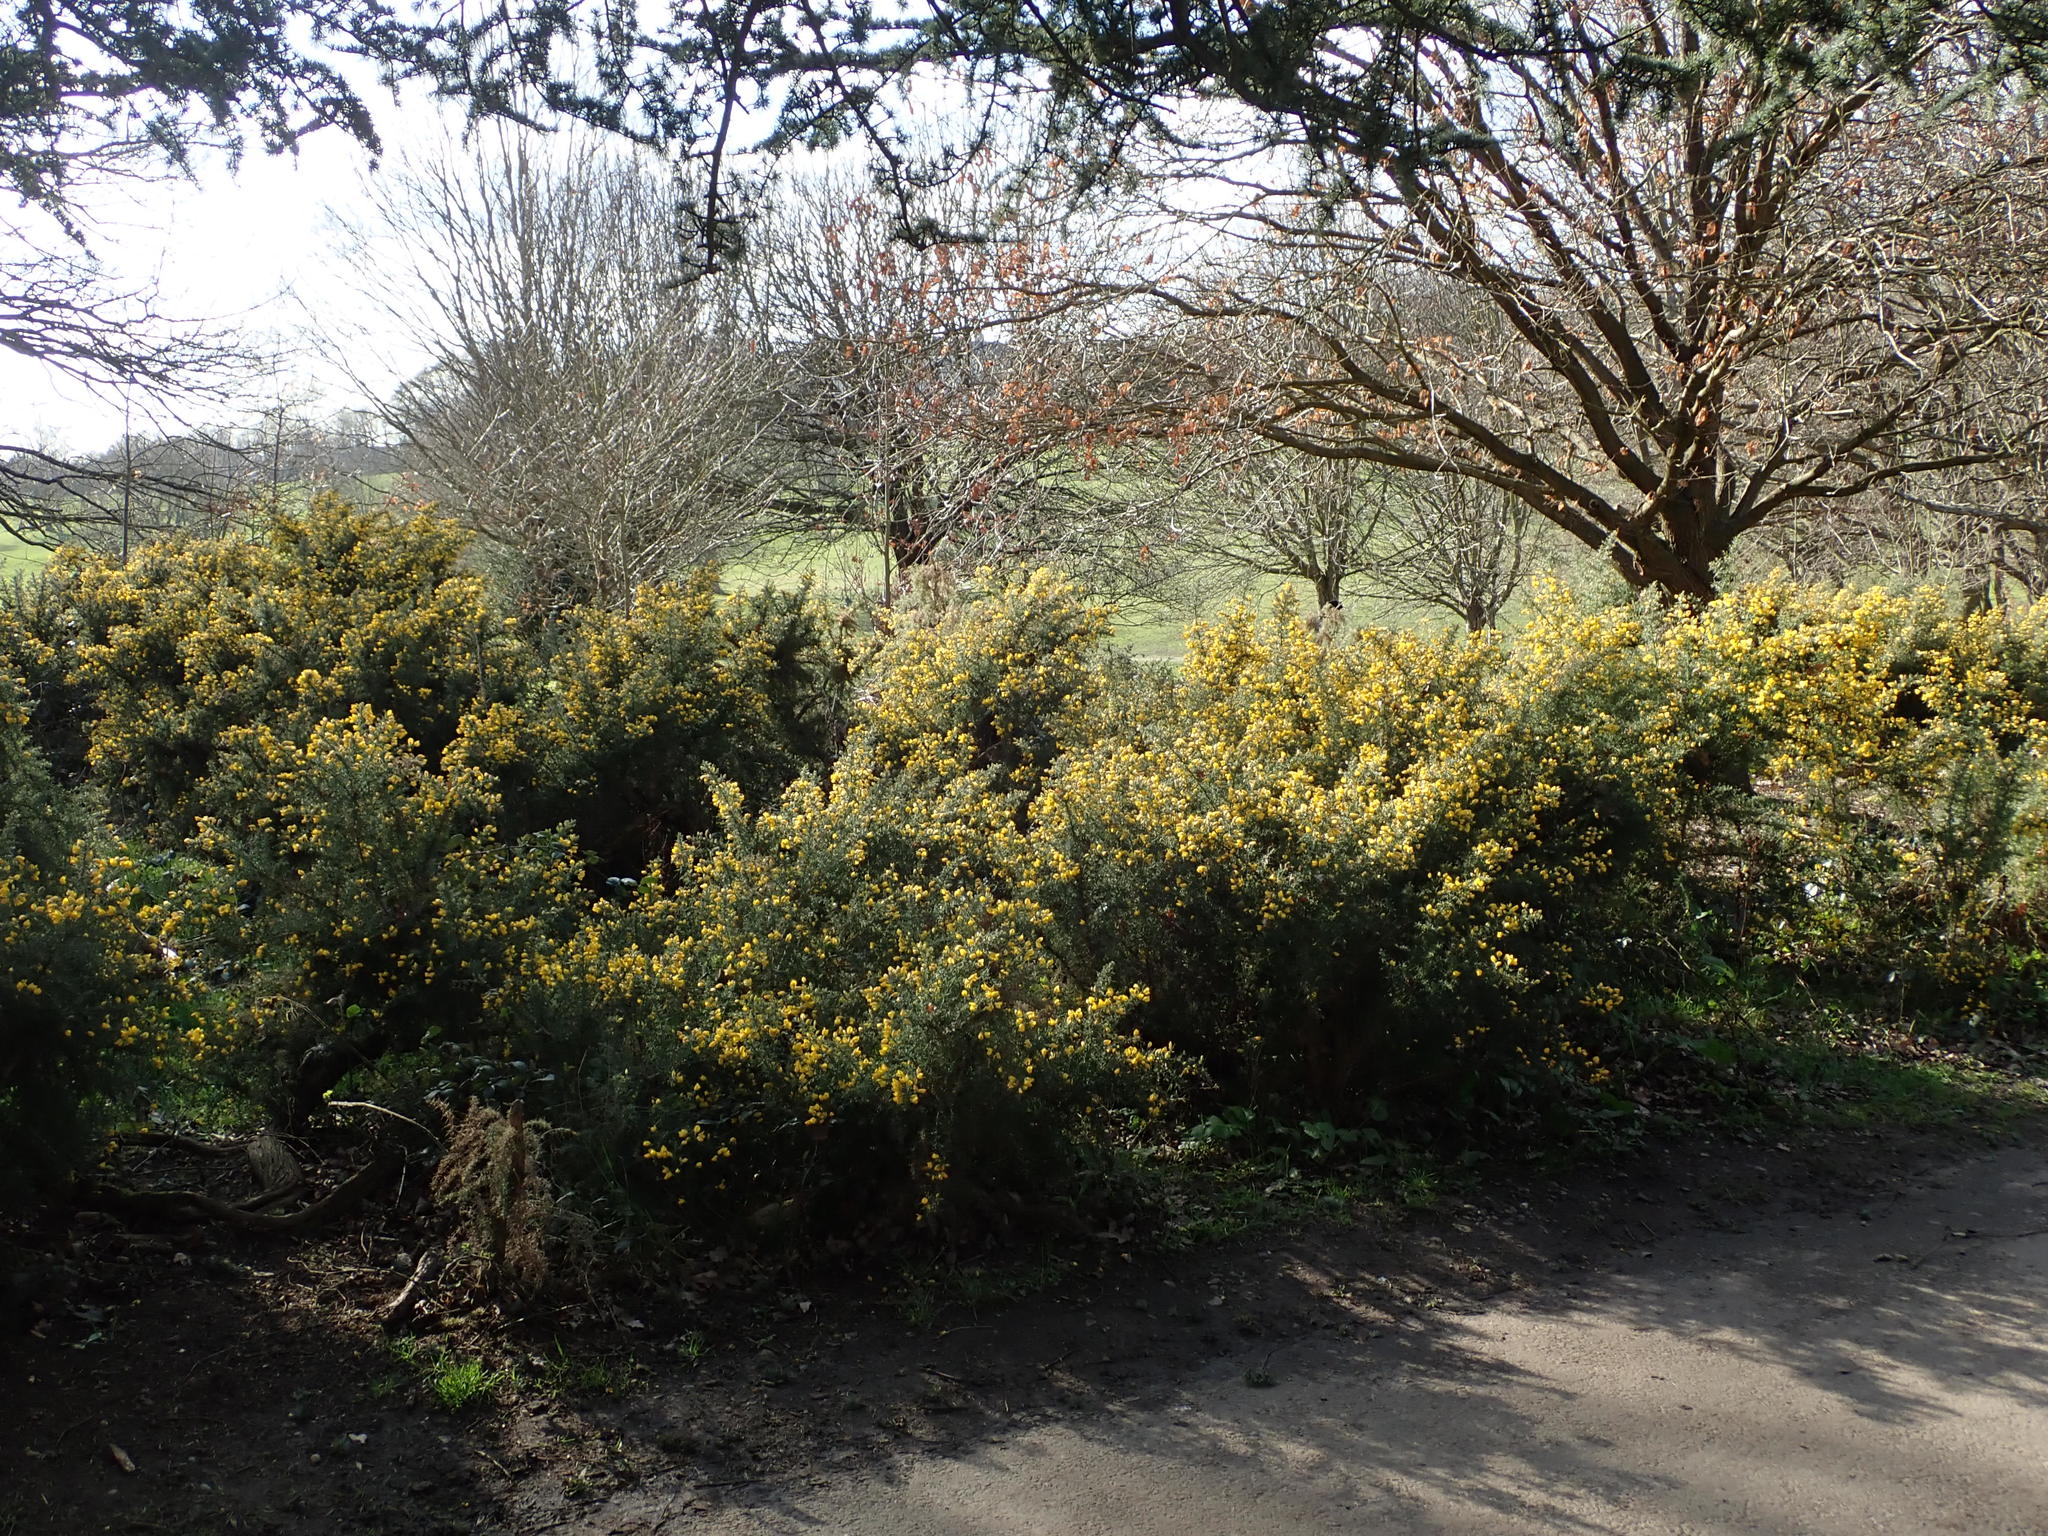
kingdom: Plantae
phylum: Tracheophyta
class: Magnoliopsida
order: Fabales
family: Fabaceae
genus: Ulex
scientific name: Ulex europaeus
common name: Common gorse
